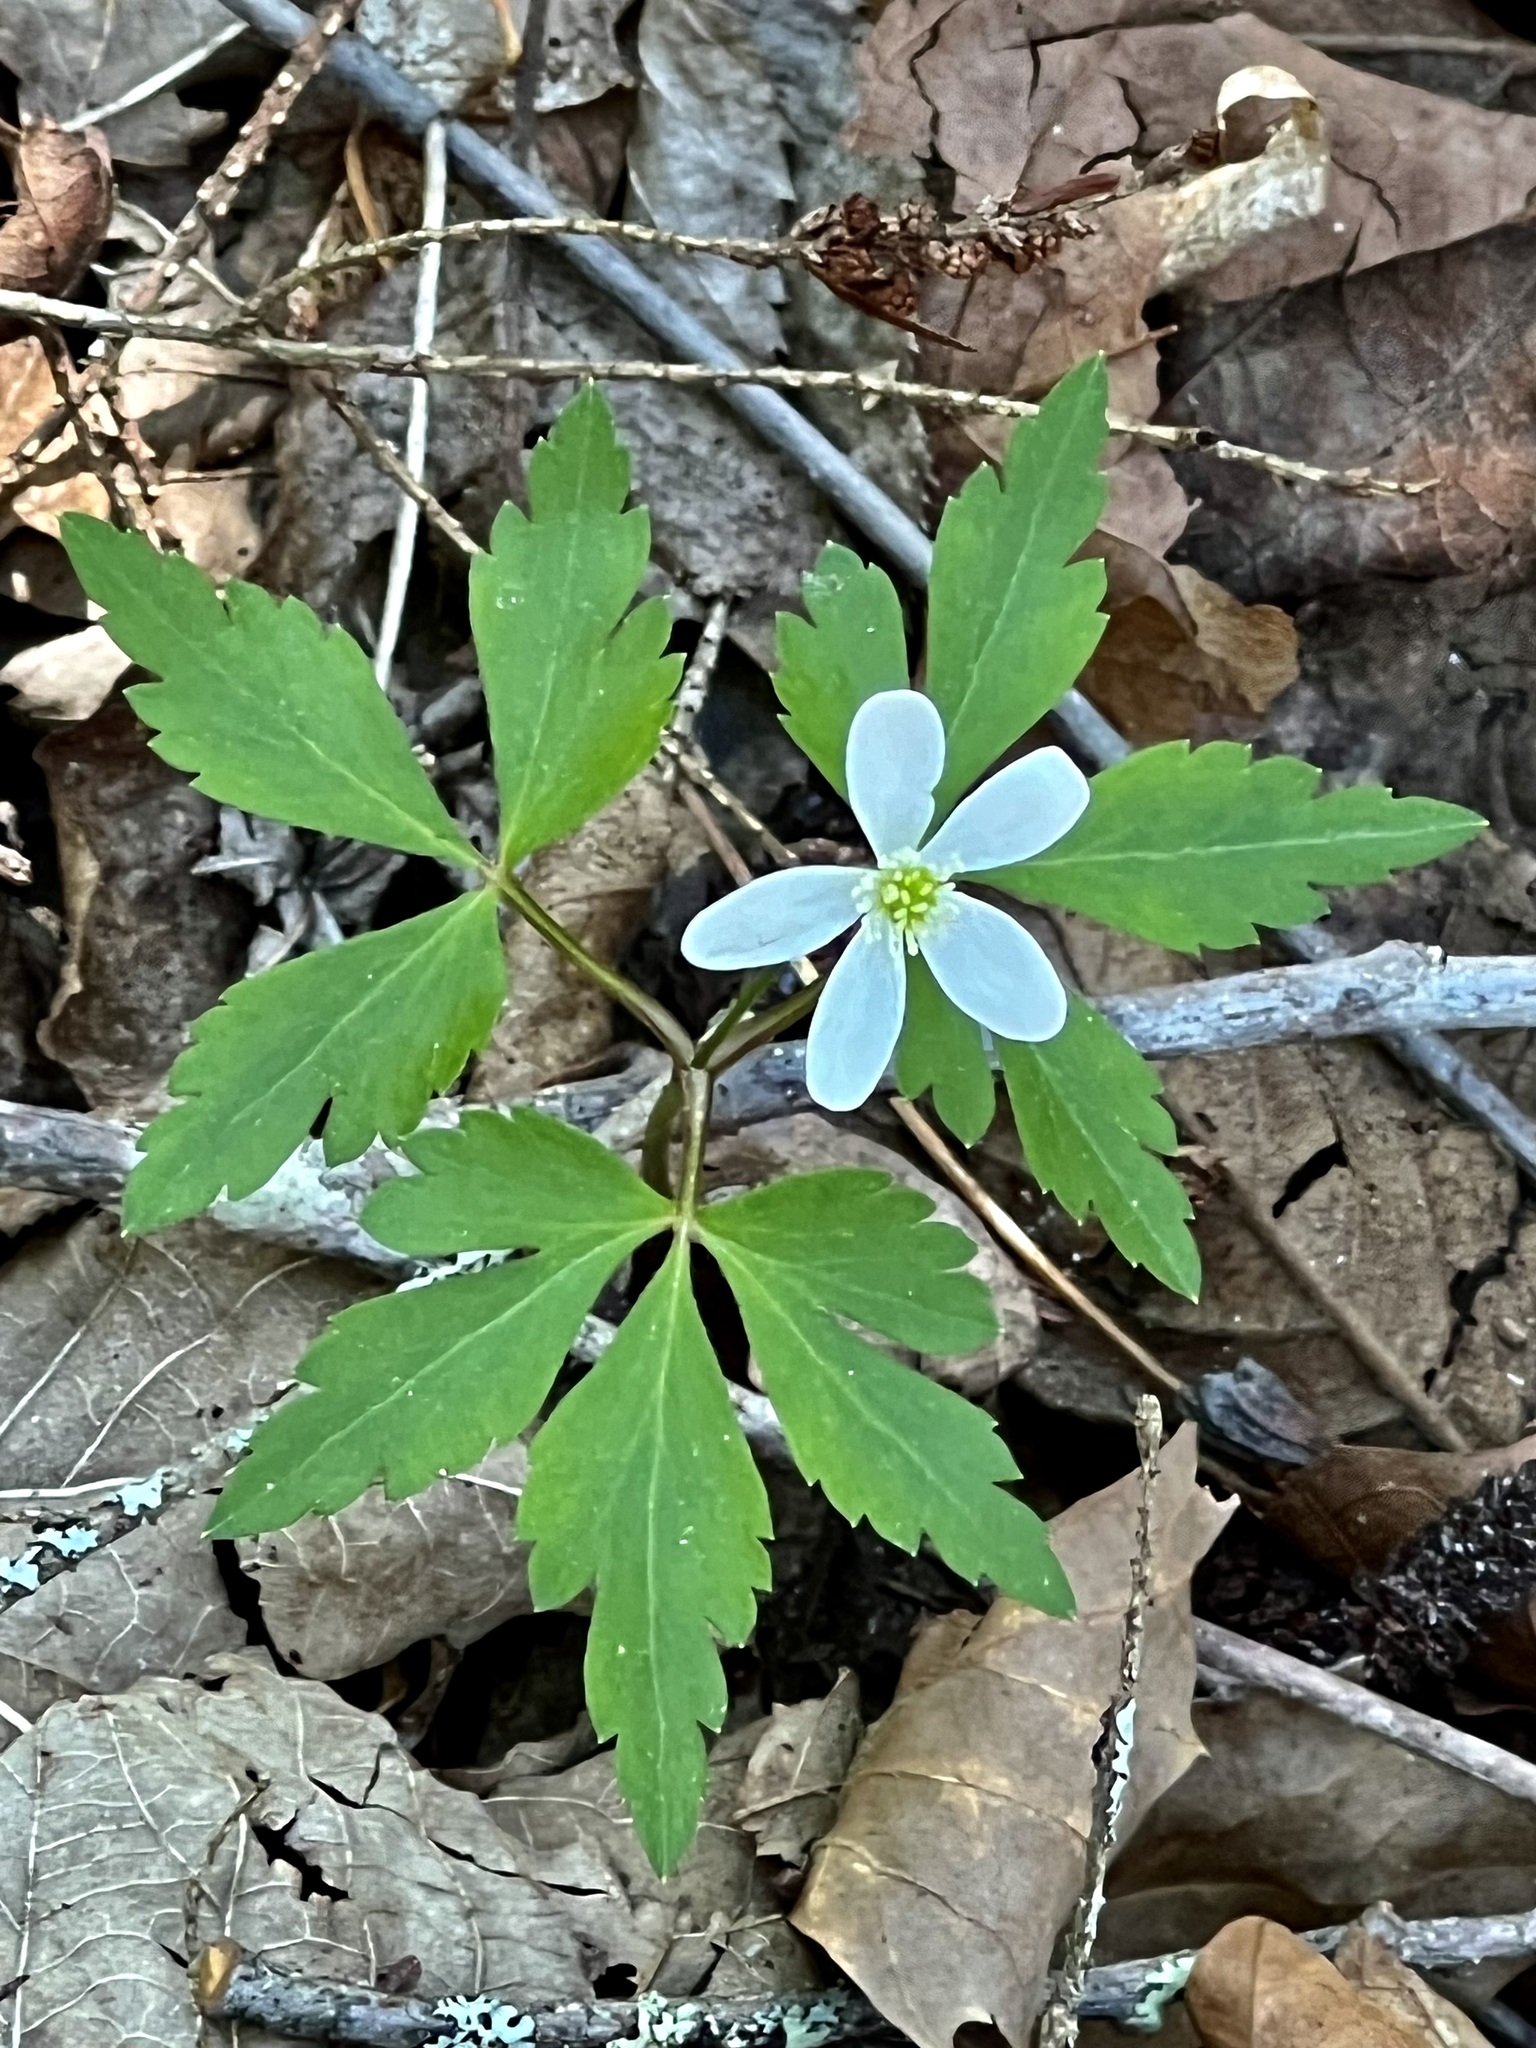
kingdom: Plantae
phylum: Tracheophyta
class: Magnoliopsida
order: Ranunculales
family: Ranunculaceae
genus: Anemone
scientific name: Anemone quinquefolia
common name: Wood anemone
